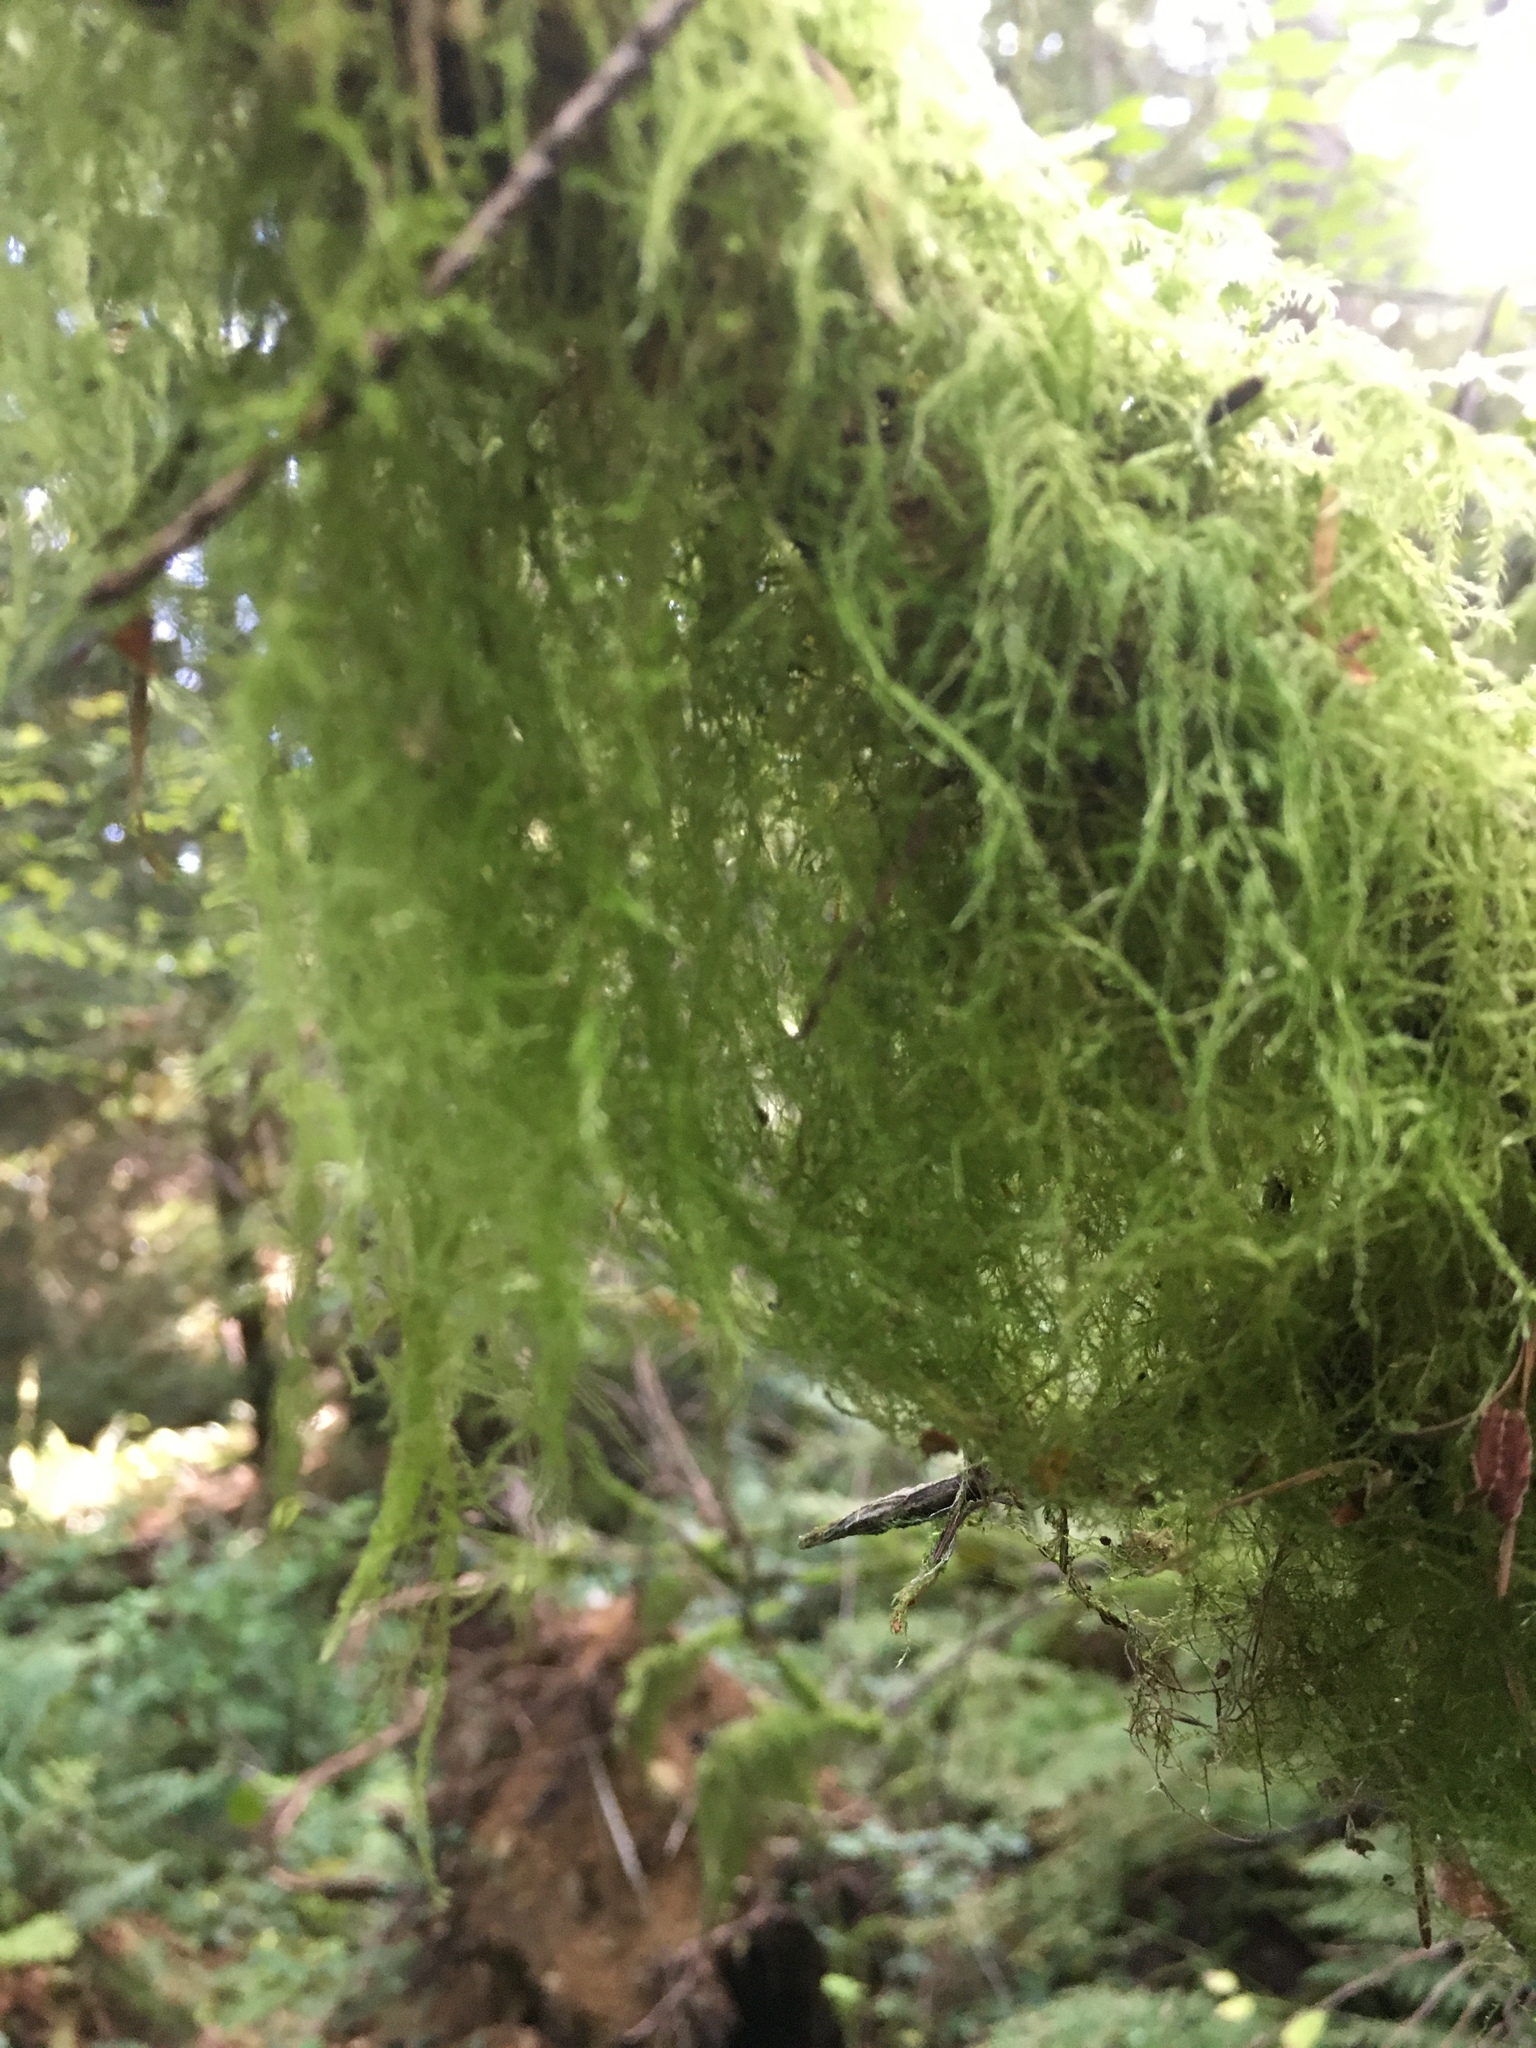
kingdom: Plantae
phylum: Bryophyta
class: Bryopsida
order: Hypnales
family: Lembophyllaceae
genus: Pseudisothecium
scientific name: Pseudisothecium stoloniferum
